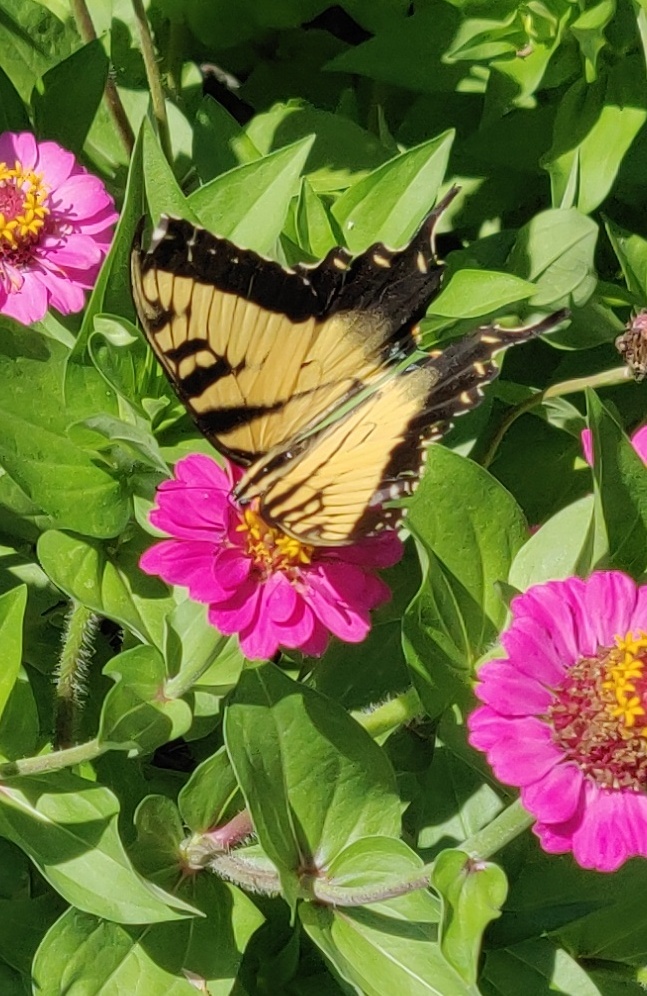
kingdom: Animalia
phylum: Arthropoda
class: Insecta
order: Lepidoptera
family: Papilionidae
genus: Papilio
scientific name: Papilio glaucus
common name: Tiger swallowtail
